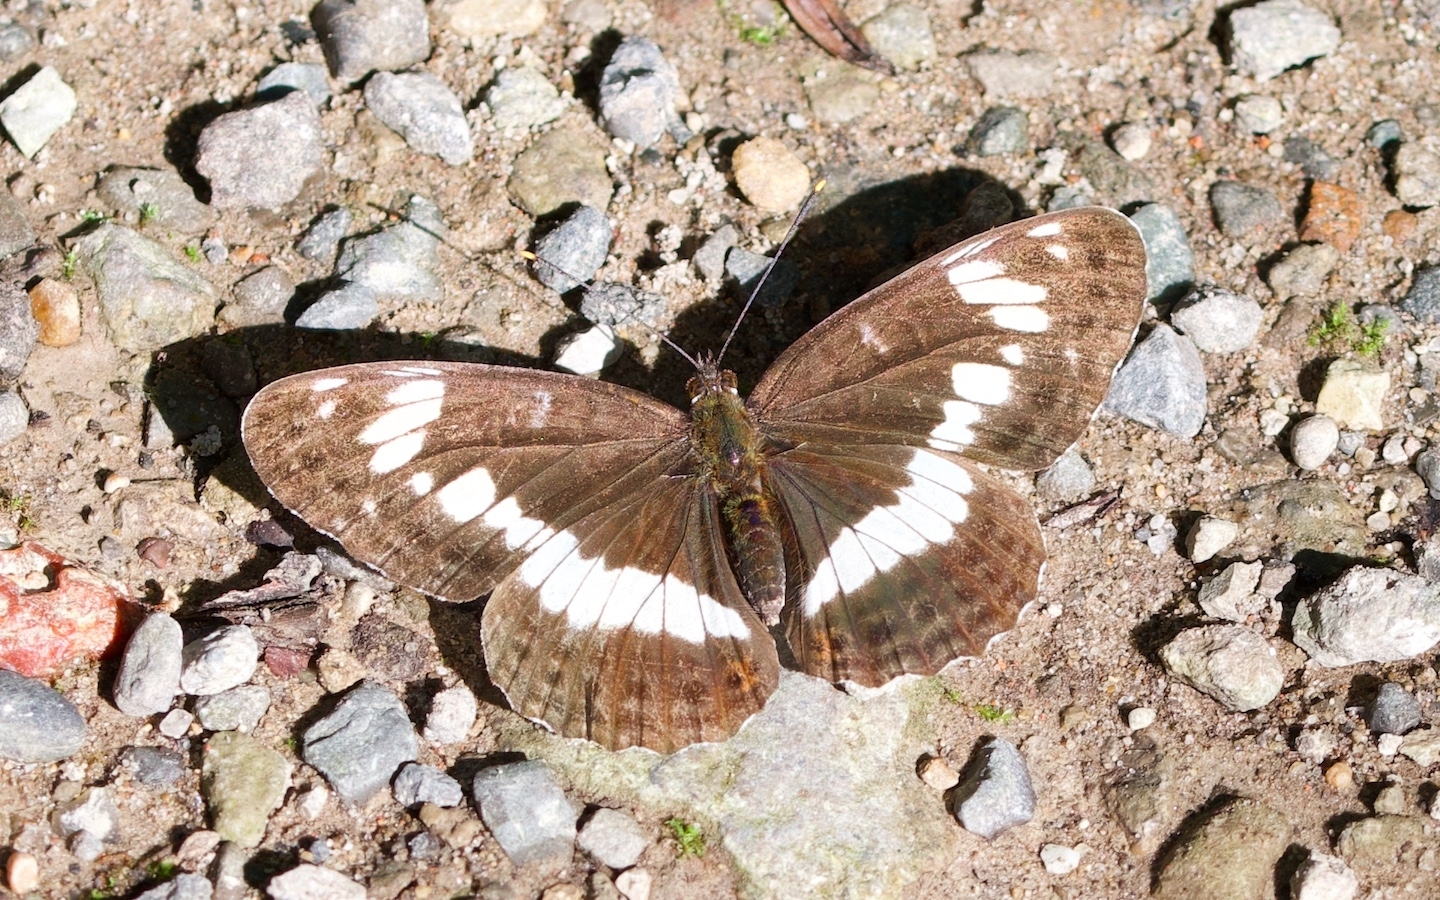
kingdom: Animalia
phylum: Arthropoda
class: Insecta
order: Lepidoptera
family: Nymphalidae
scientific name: Nymphalidae
